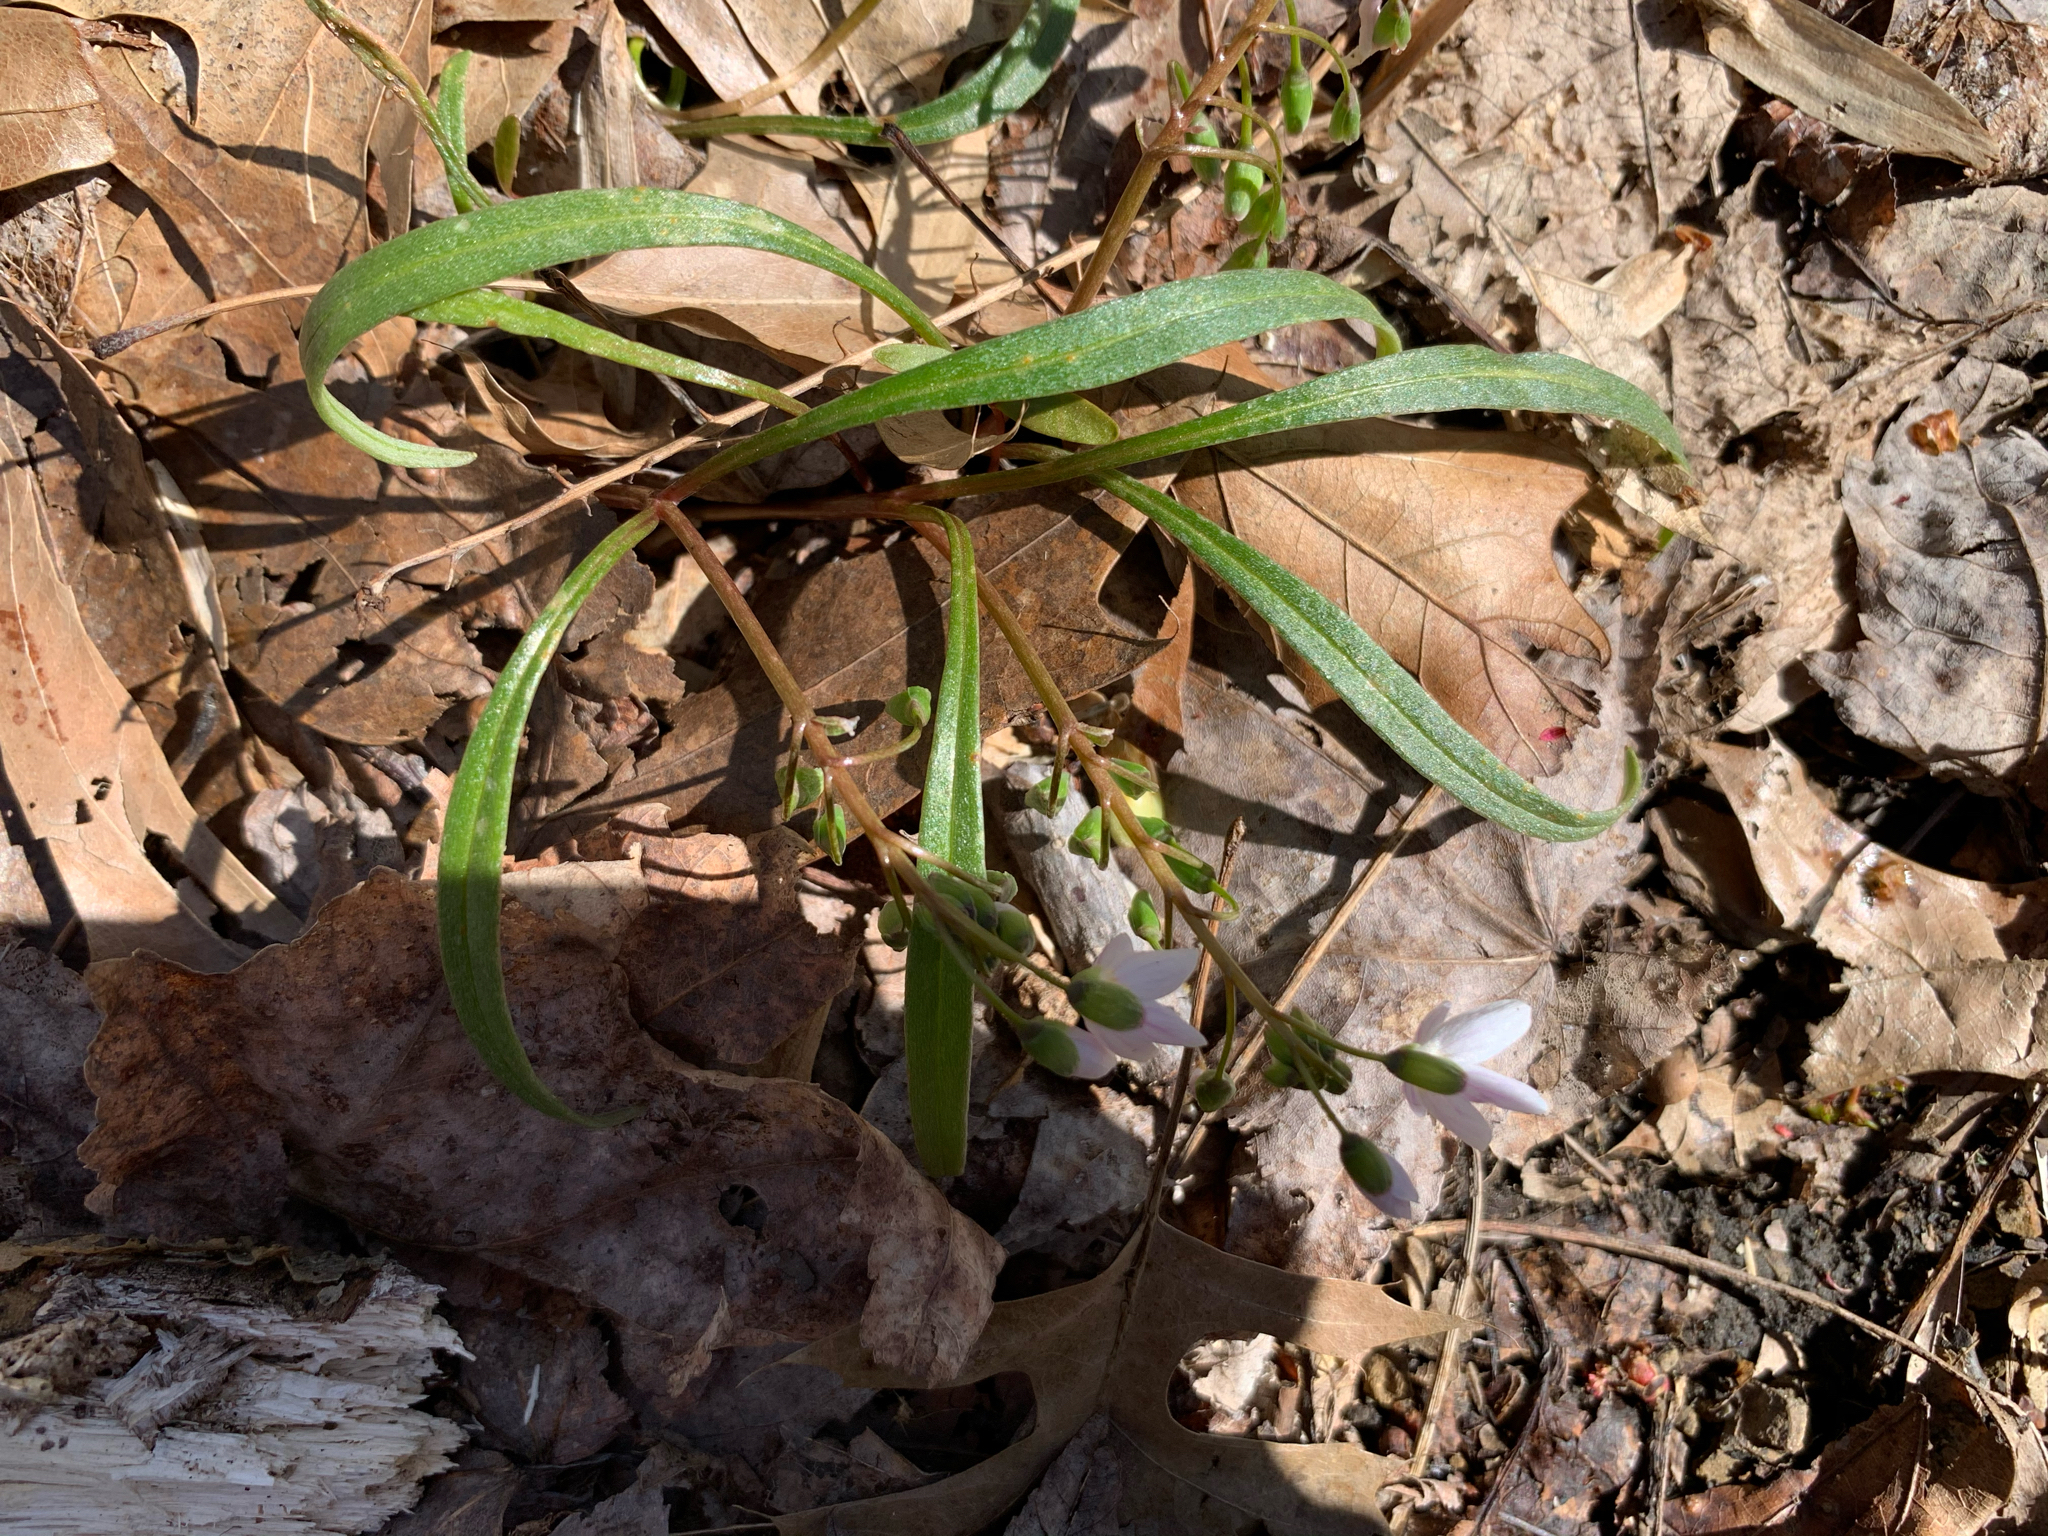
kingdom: Plantae
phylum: Tracheophyta
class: Magnoliopsida
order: Caryophyllales
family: Montiaceae
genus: Claytonia
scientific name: Claytonia virginica
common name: Virginia springbeauty
